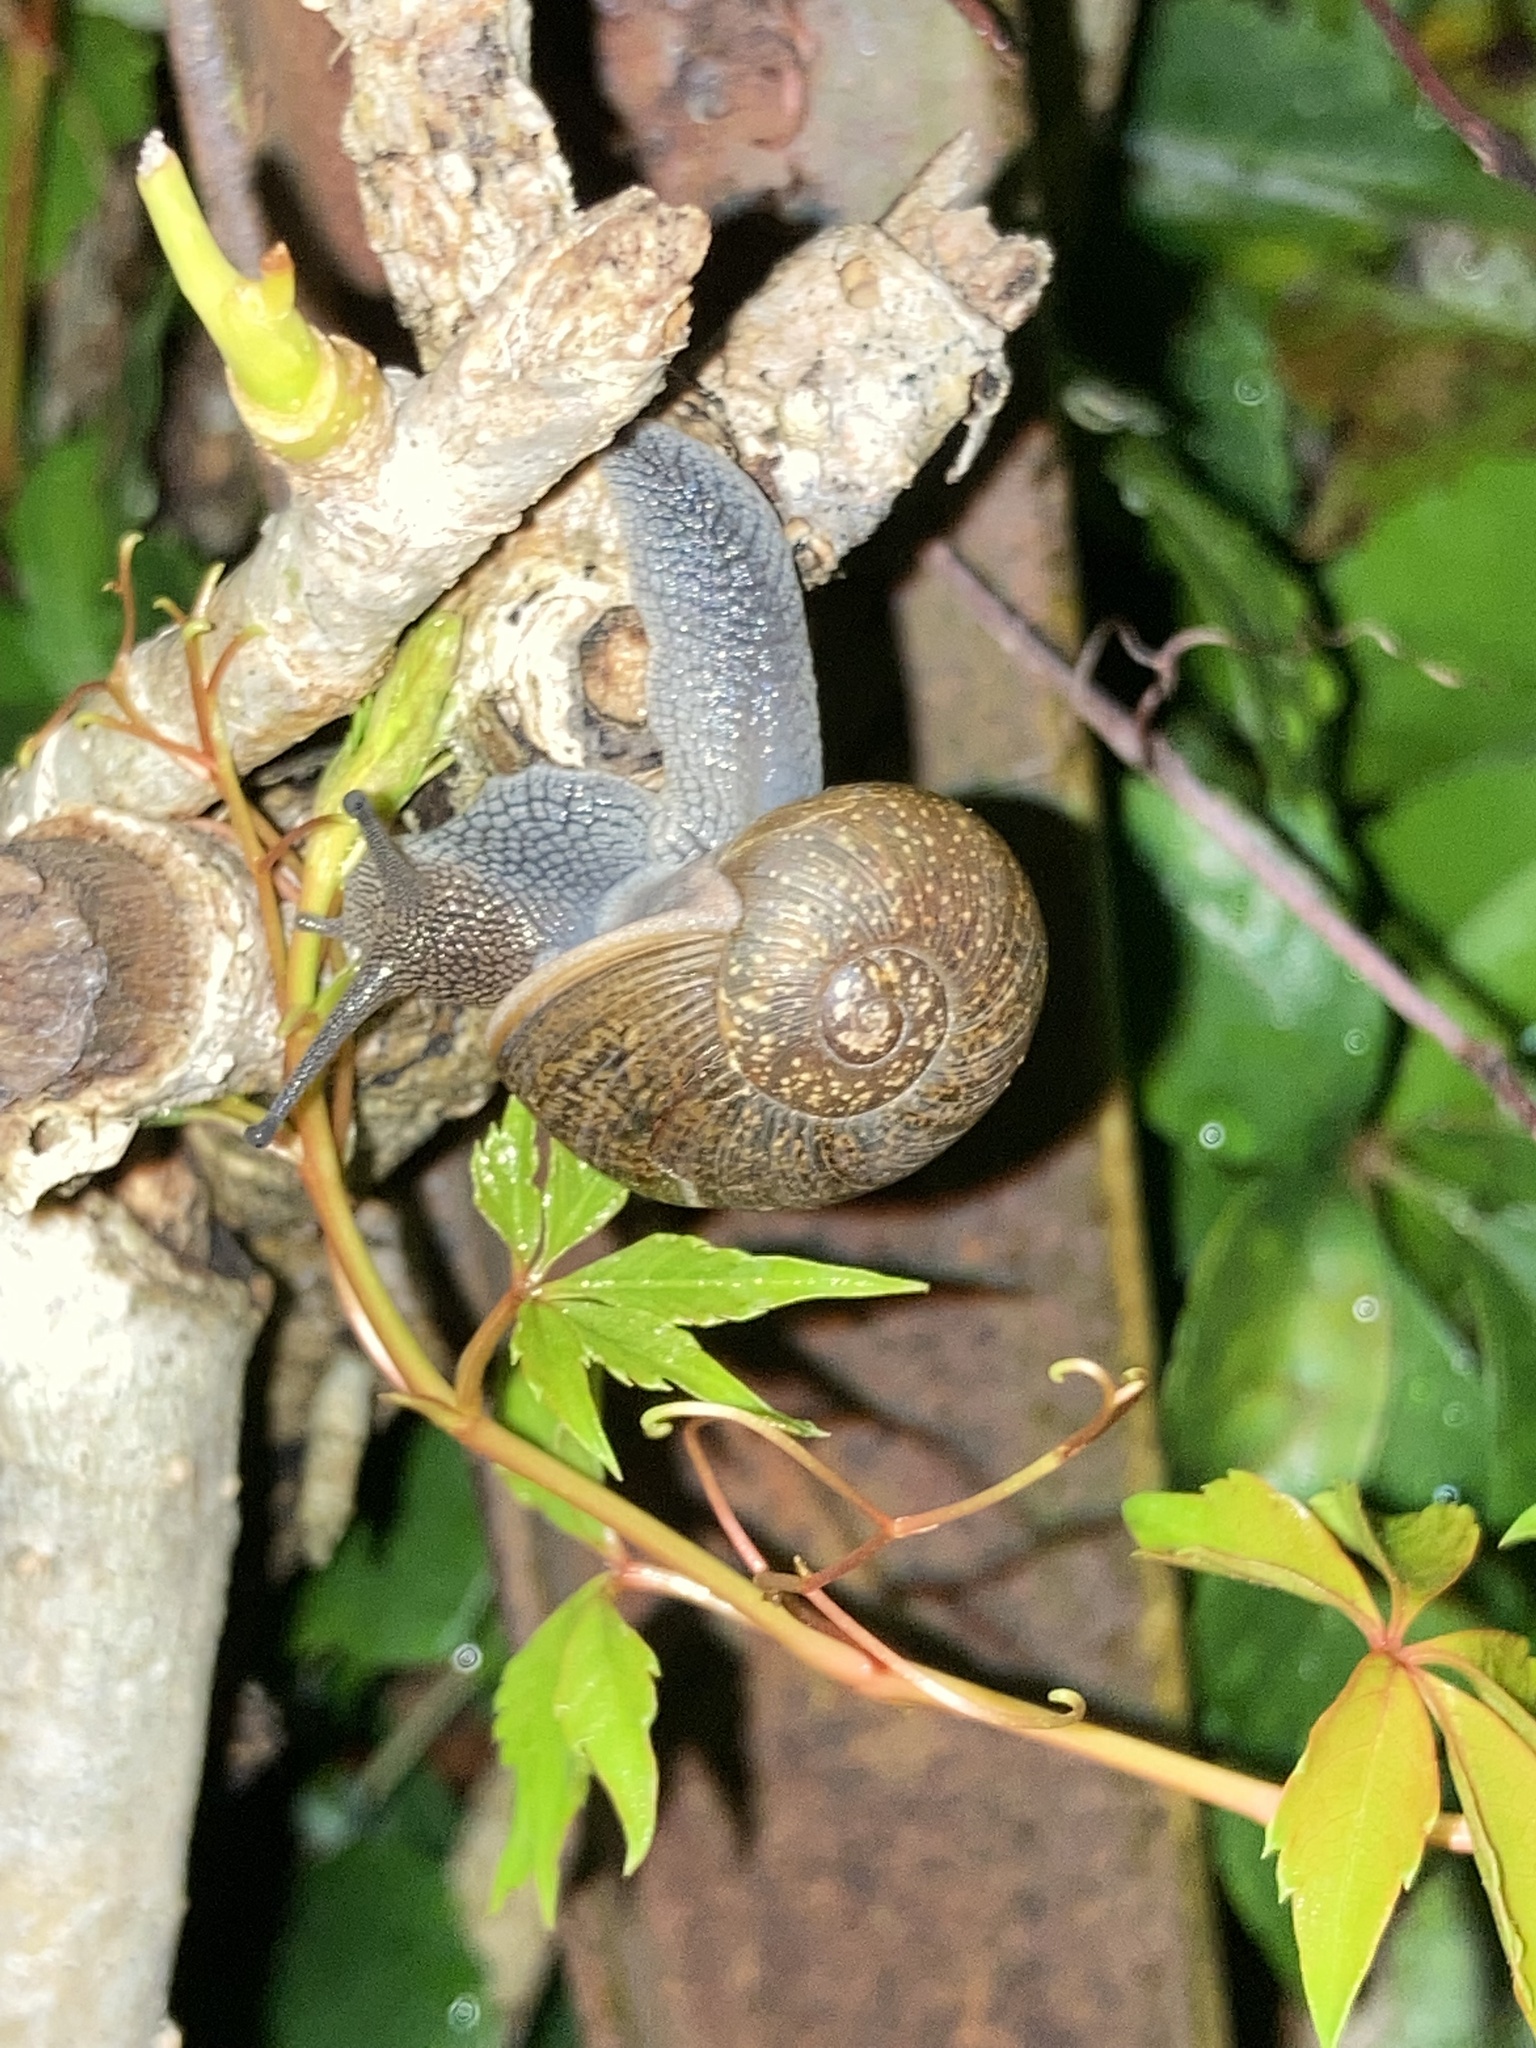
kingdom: Animalia
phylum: Mollusca
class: Gastropoda
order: Stylommatophora
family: Zachrysiidae
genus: Zachrysia
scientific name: Zachrysia provisoria
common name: Garden zachrysia
